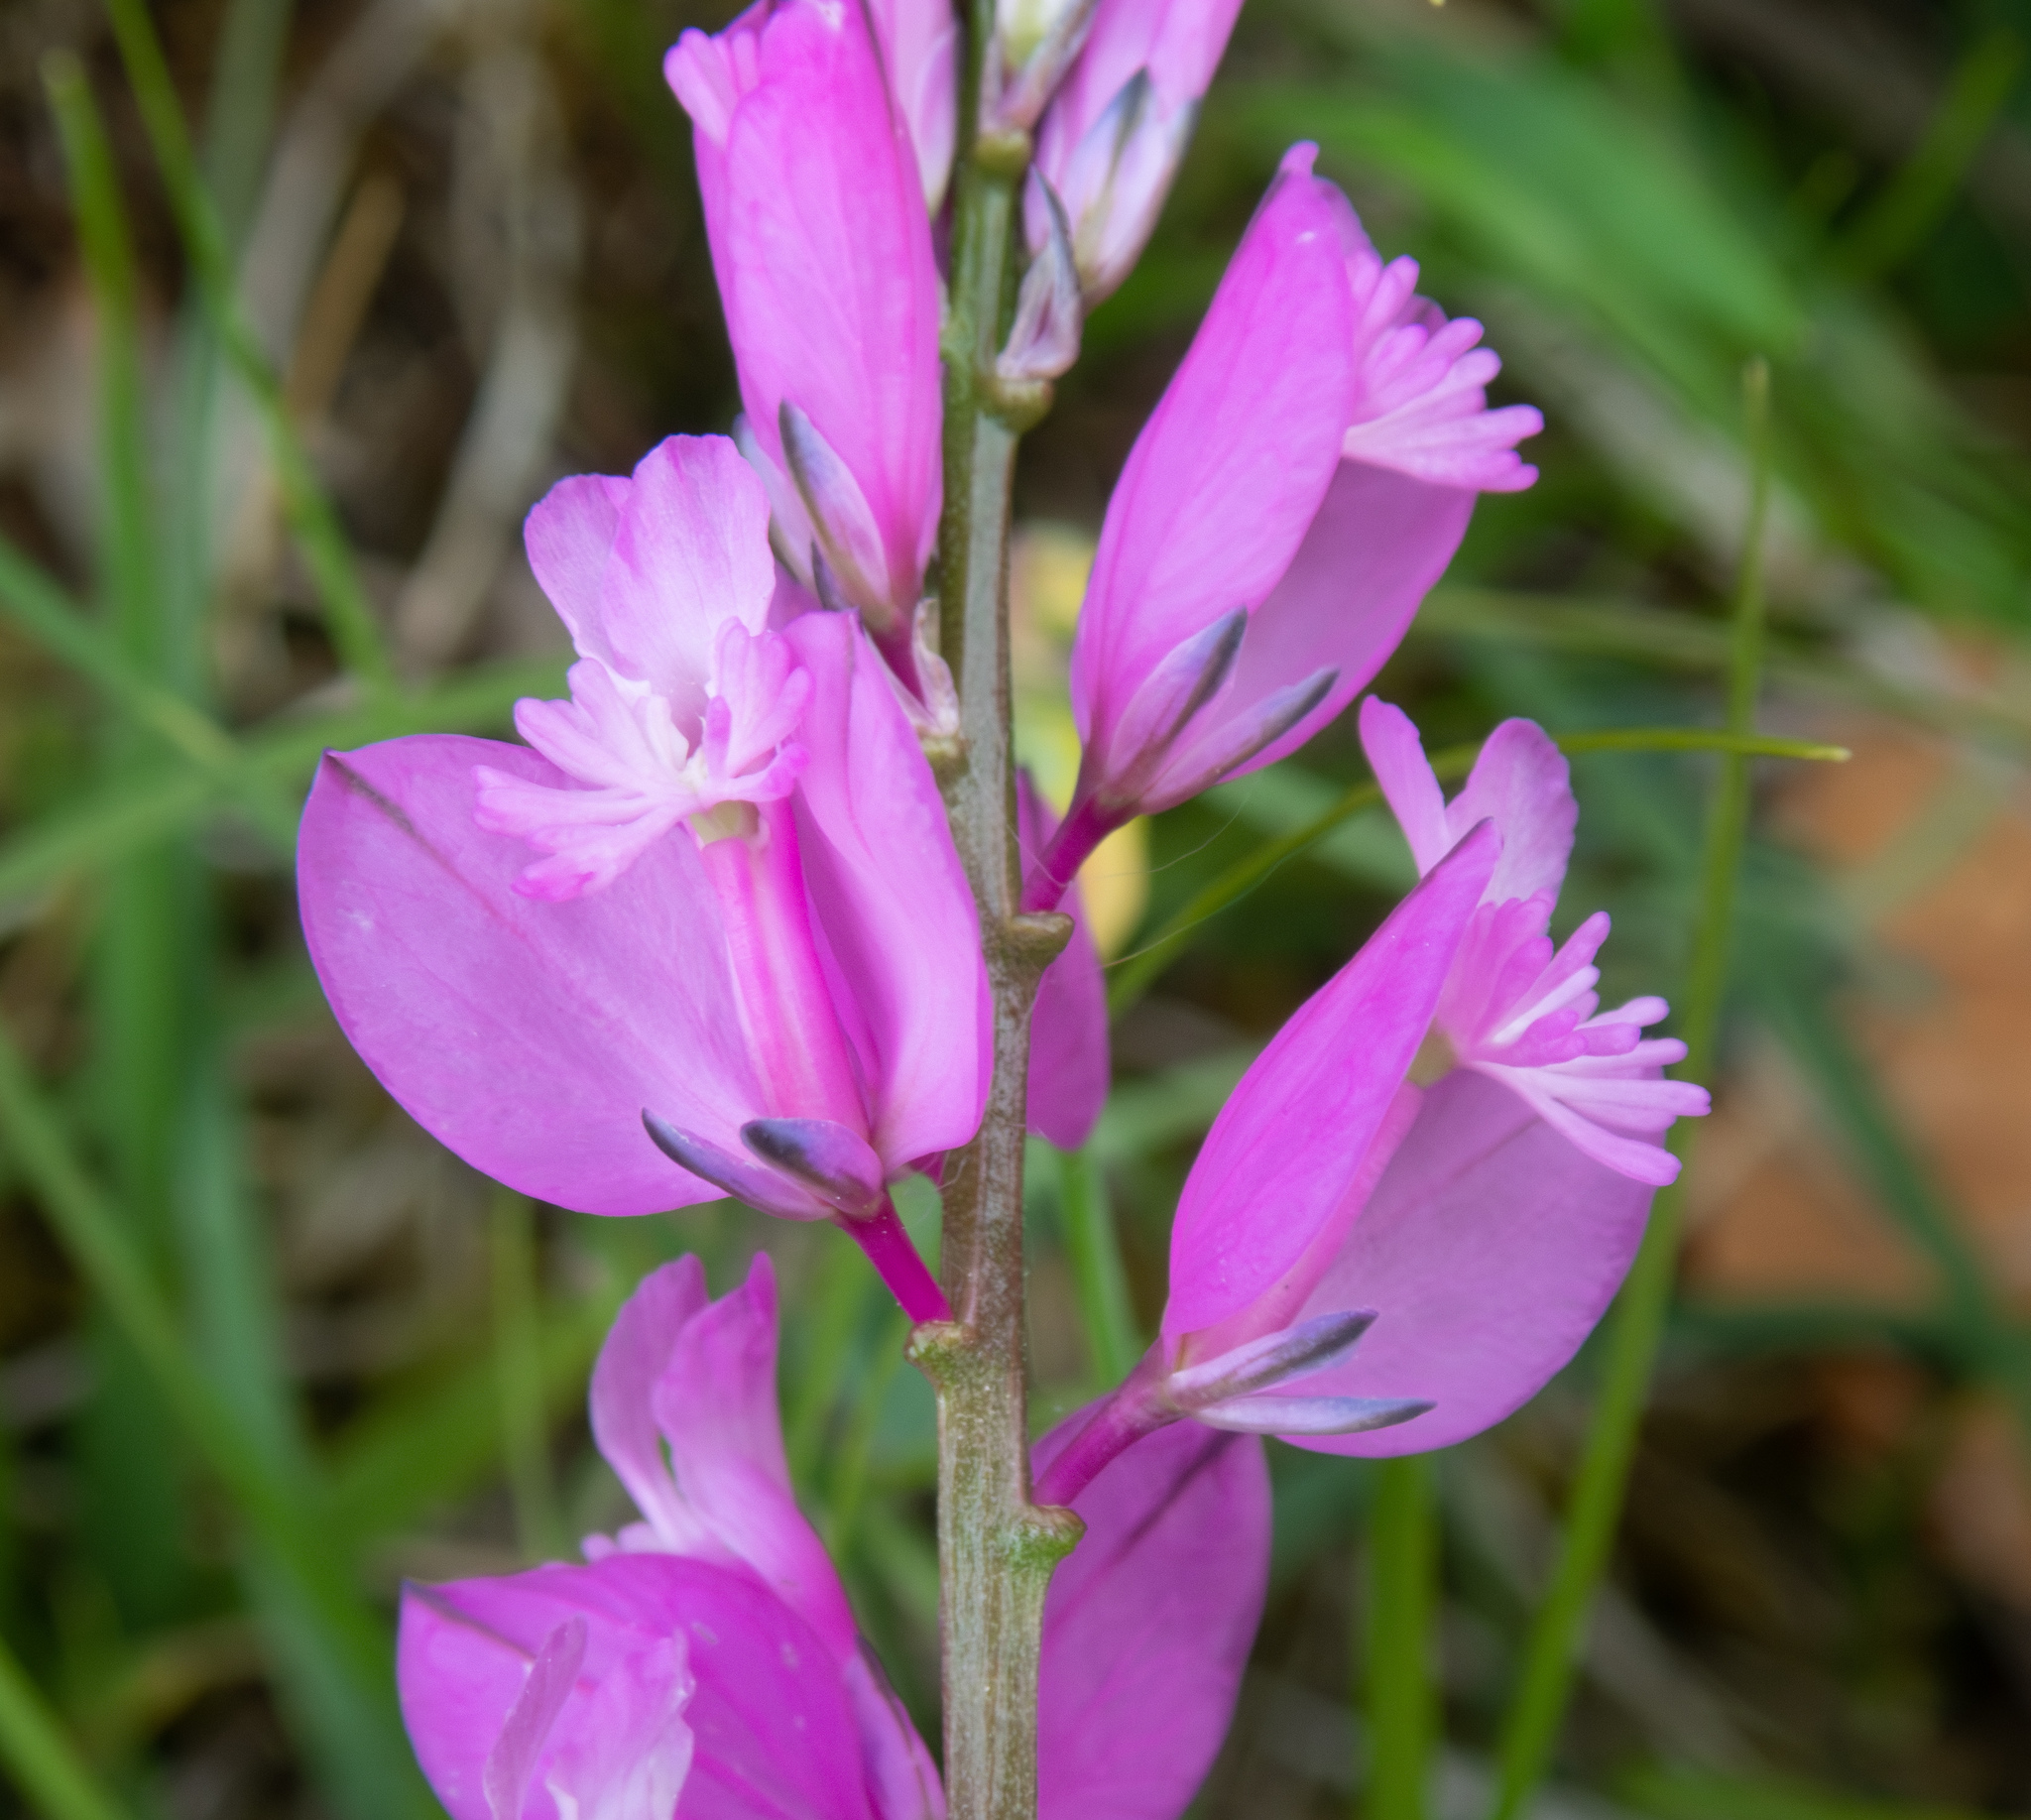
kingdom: Plantae
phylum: Tracheophyta
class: Magnoliopsida
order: Fabales
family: Polygalaceae
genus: Polygala
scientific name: Polygala nicaeensis
